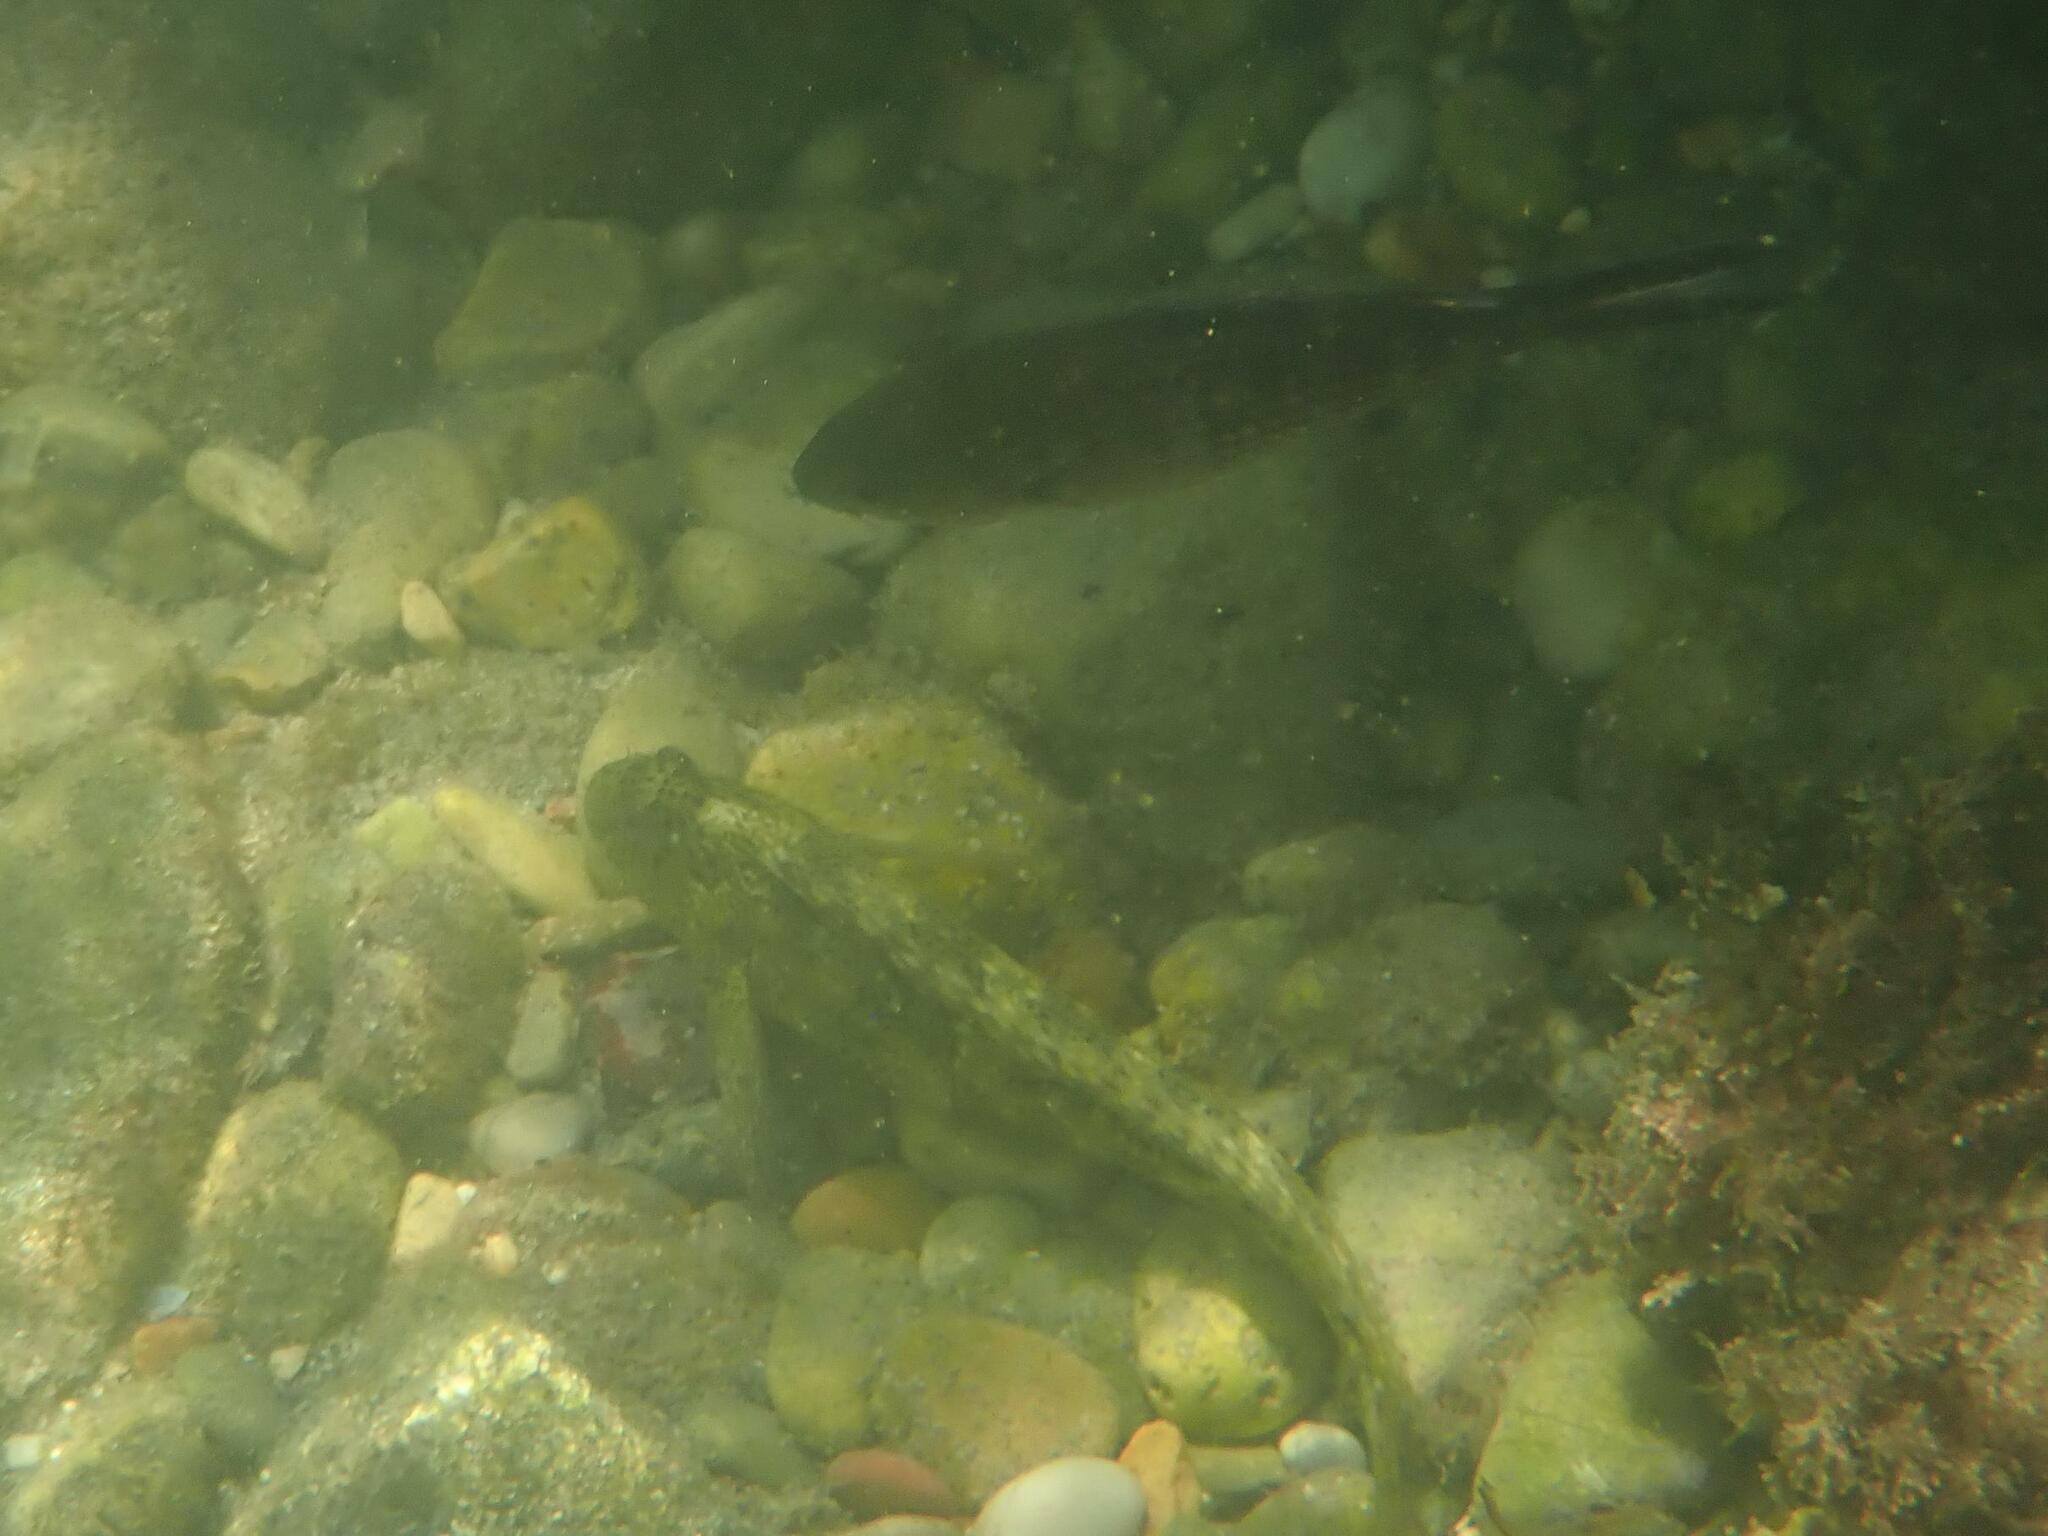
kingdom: Animalia
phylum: Chordata
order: Perciformes
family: Blenniidae
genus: Parablennius
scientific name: Parablennius sanguinolentus
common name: Black sea blenny
